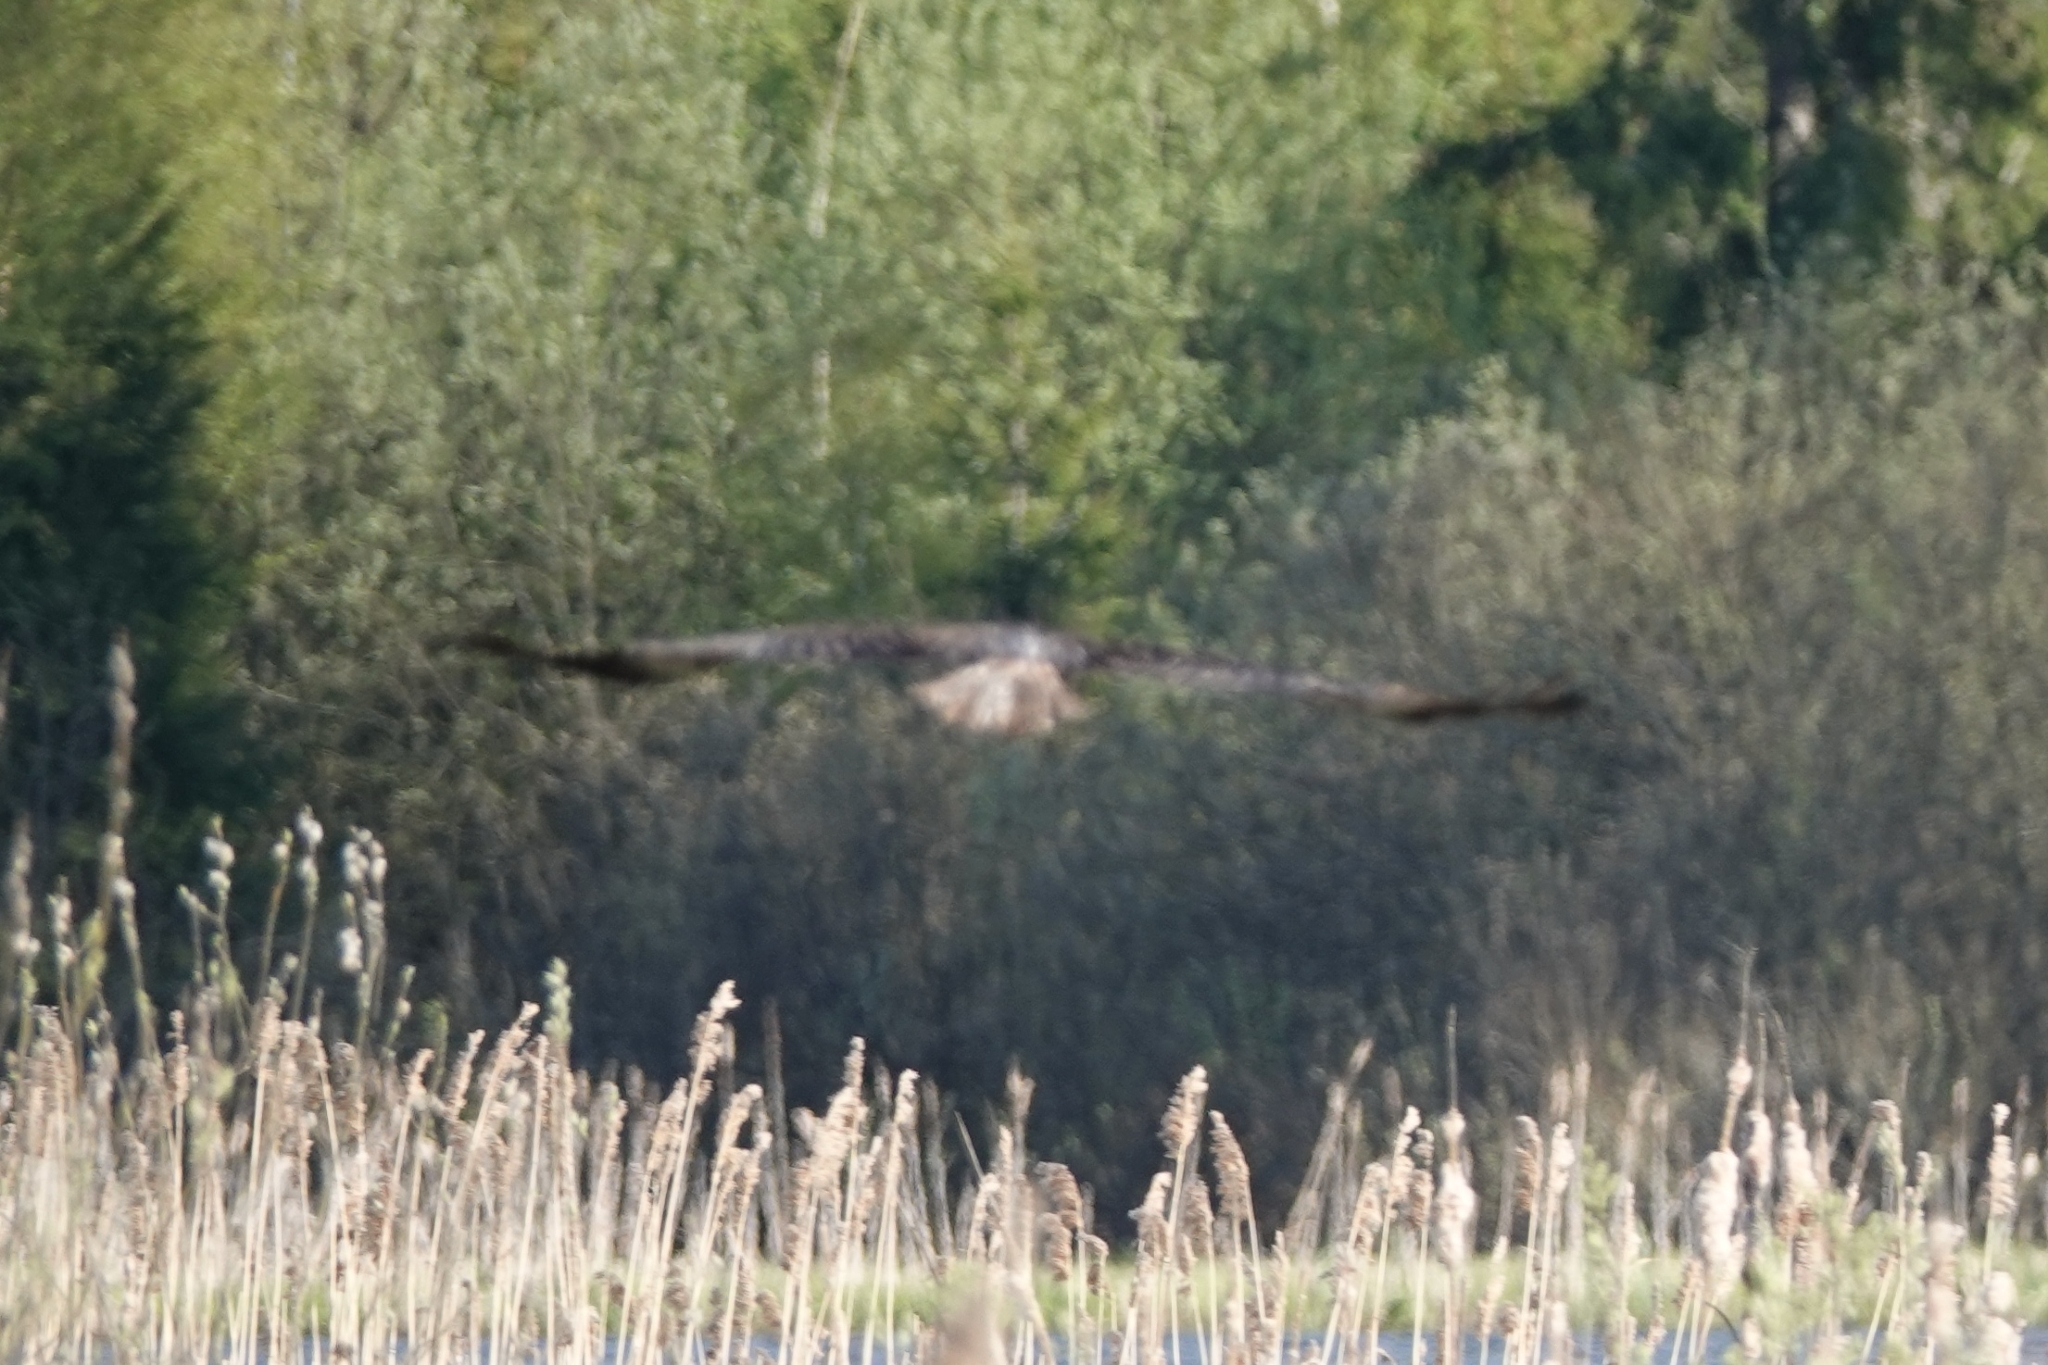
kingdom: Animalia
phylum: Chordata
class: Aves
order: Accipitriformes
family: Accipitridae
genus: Circus
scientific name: Circus aeruginosus
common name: Western marsh harrier
